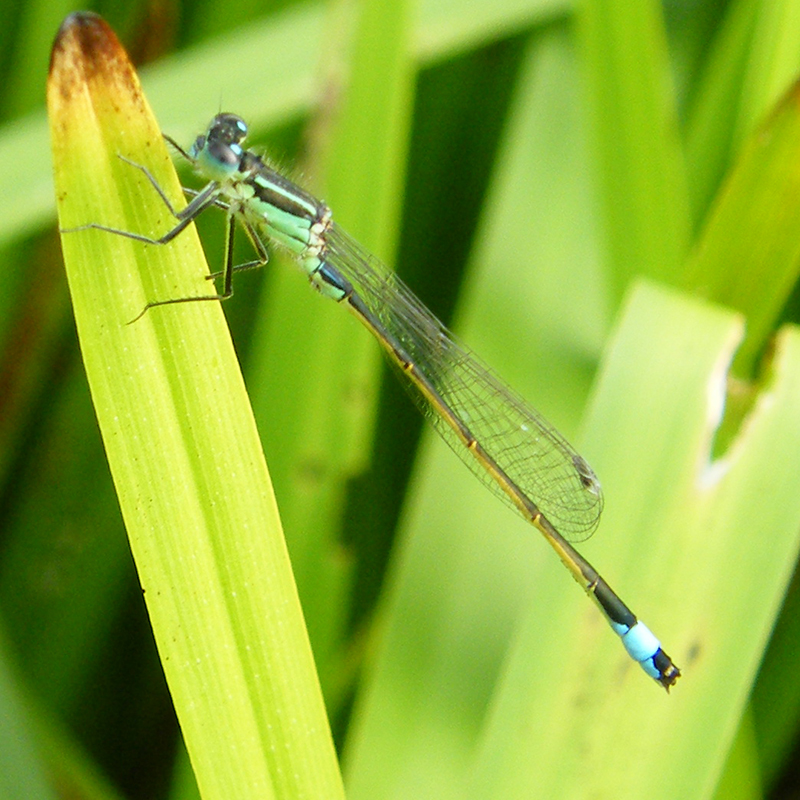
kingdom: Animalia
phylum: Arthropoda
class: Insecta
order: Odonata
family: Coenagrionidae
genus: Ischnura
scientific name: Ischnura elegans
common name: Blue-tailed damselfly
